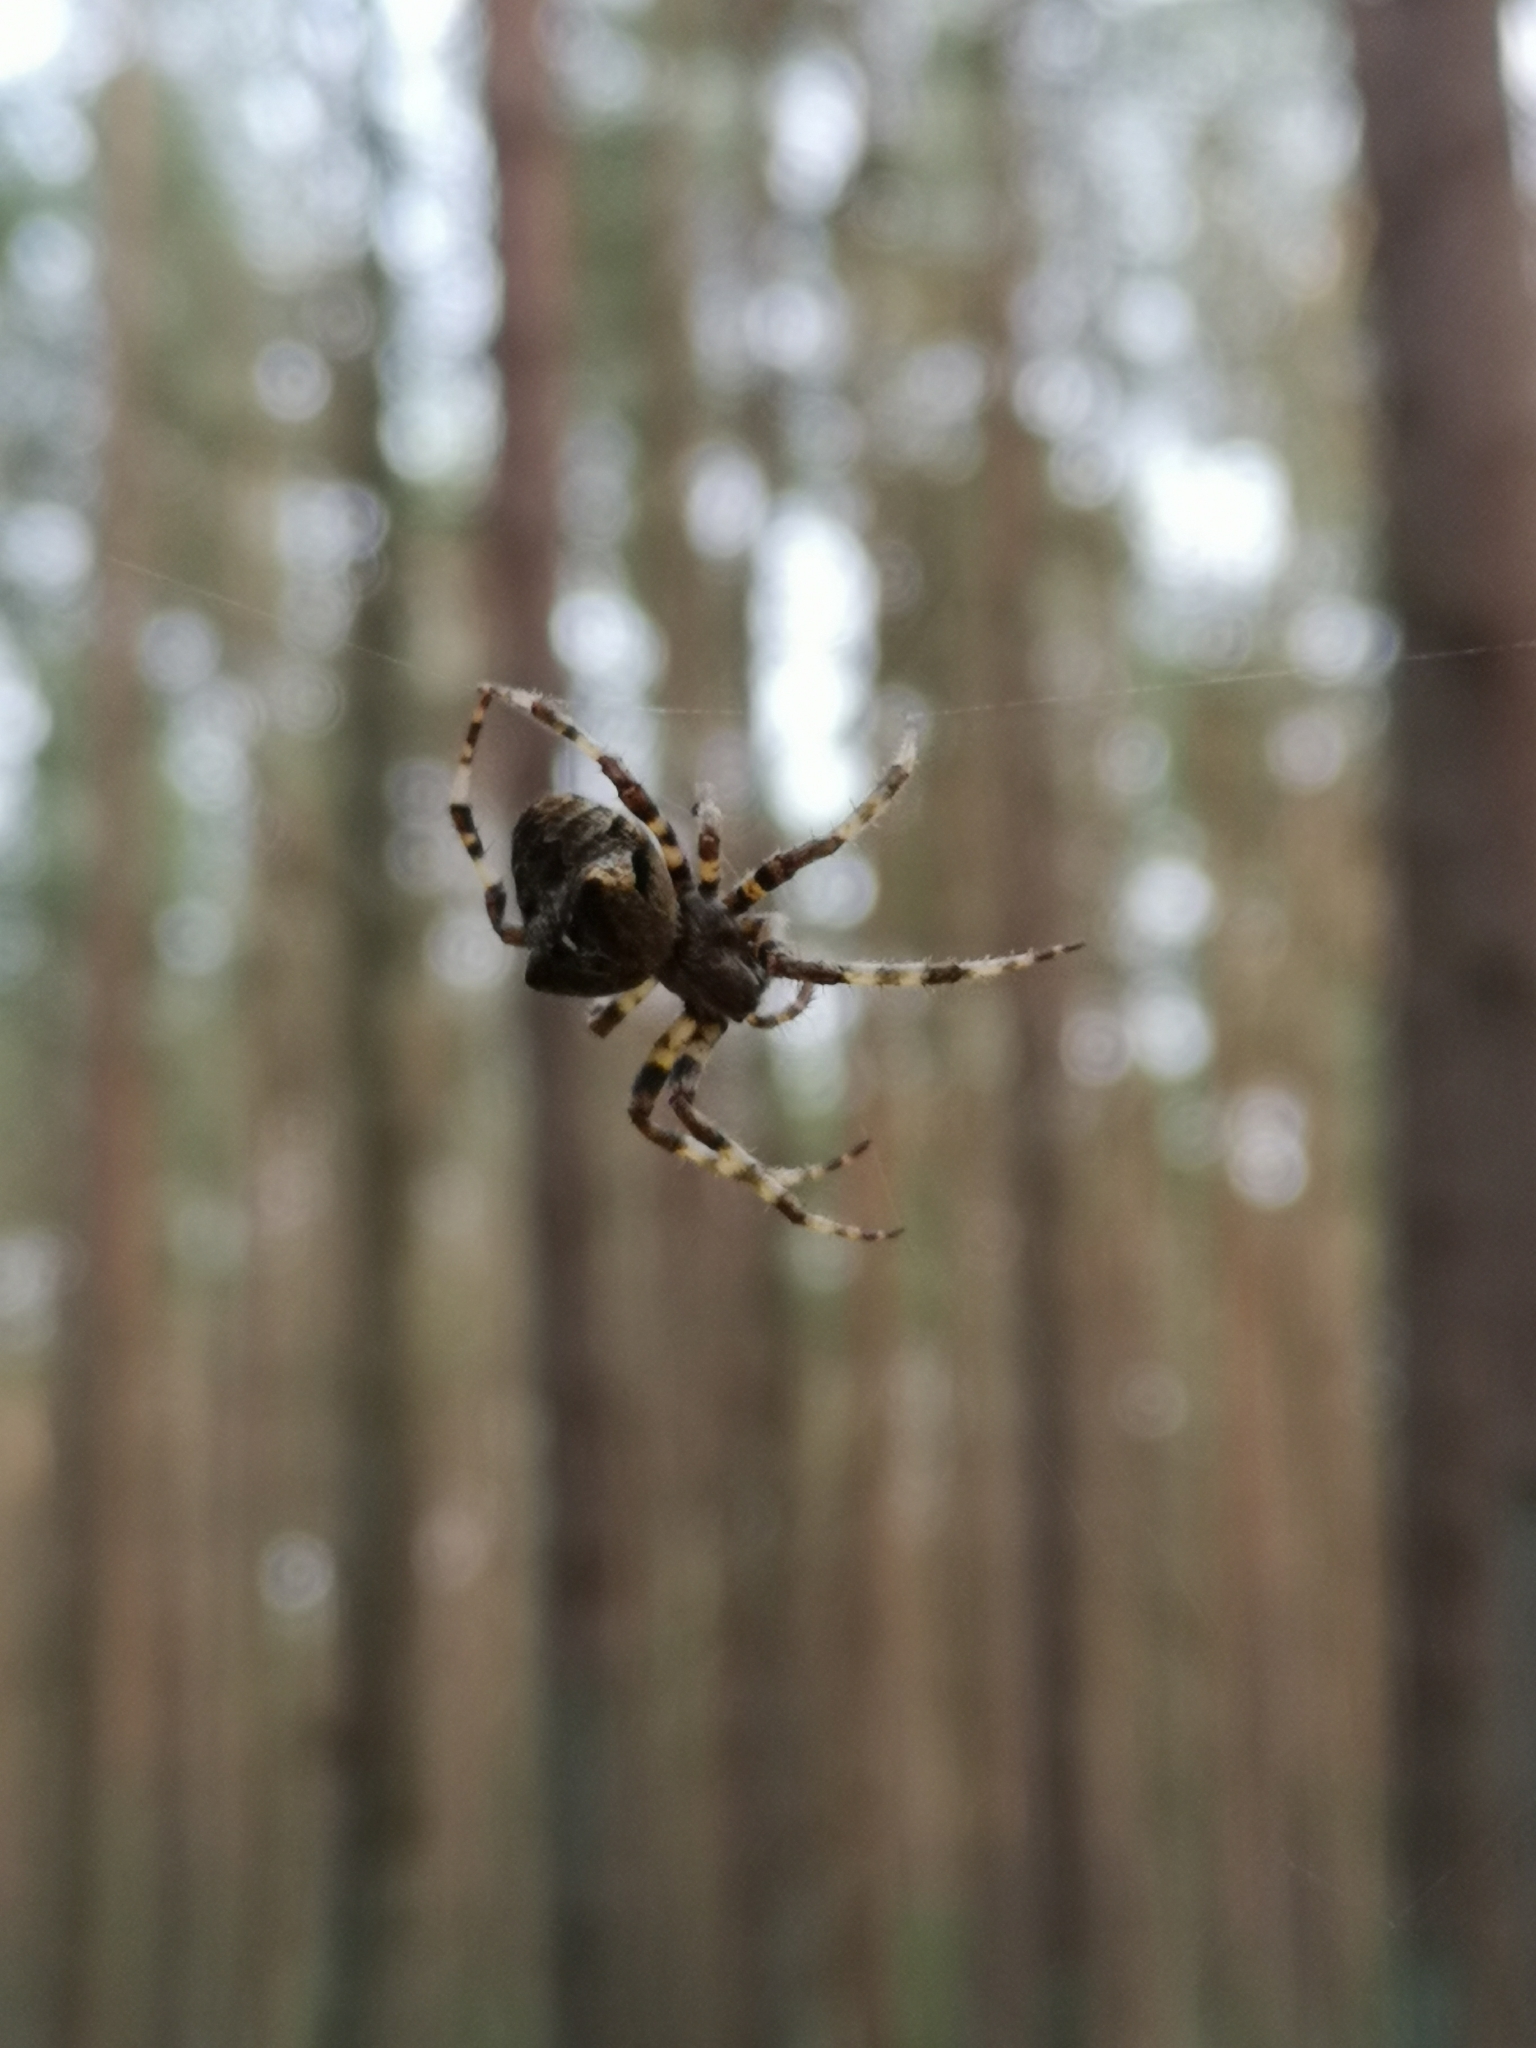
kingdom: Animalia
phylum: Arthropoda
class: Arachnida
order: Araneae
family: Araneidae
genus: Araneus
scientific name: Araneus angulatus
